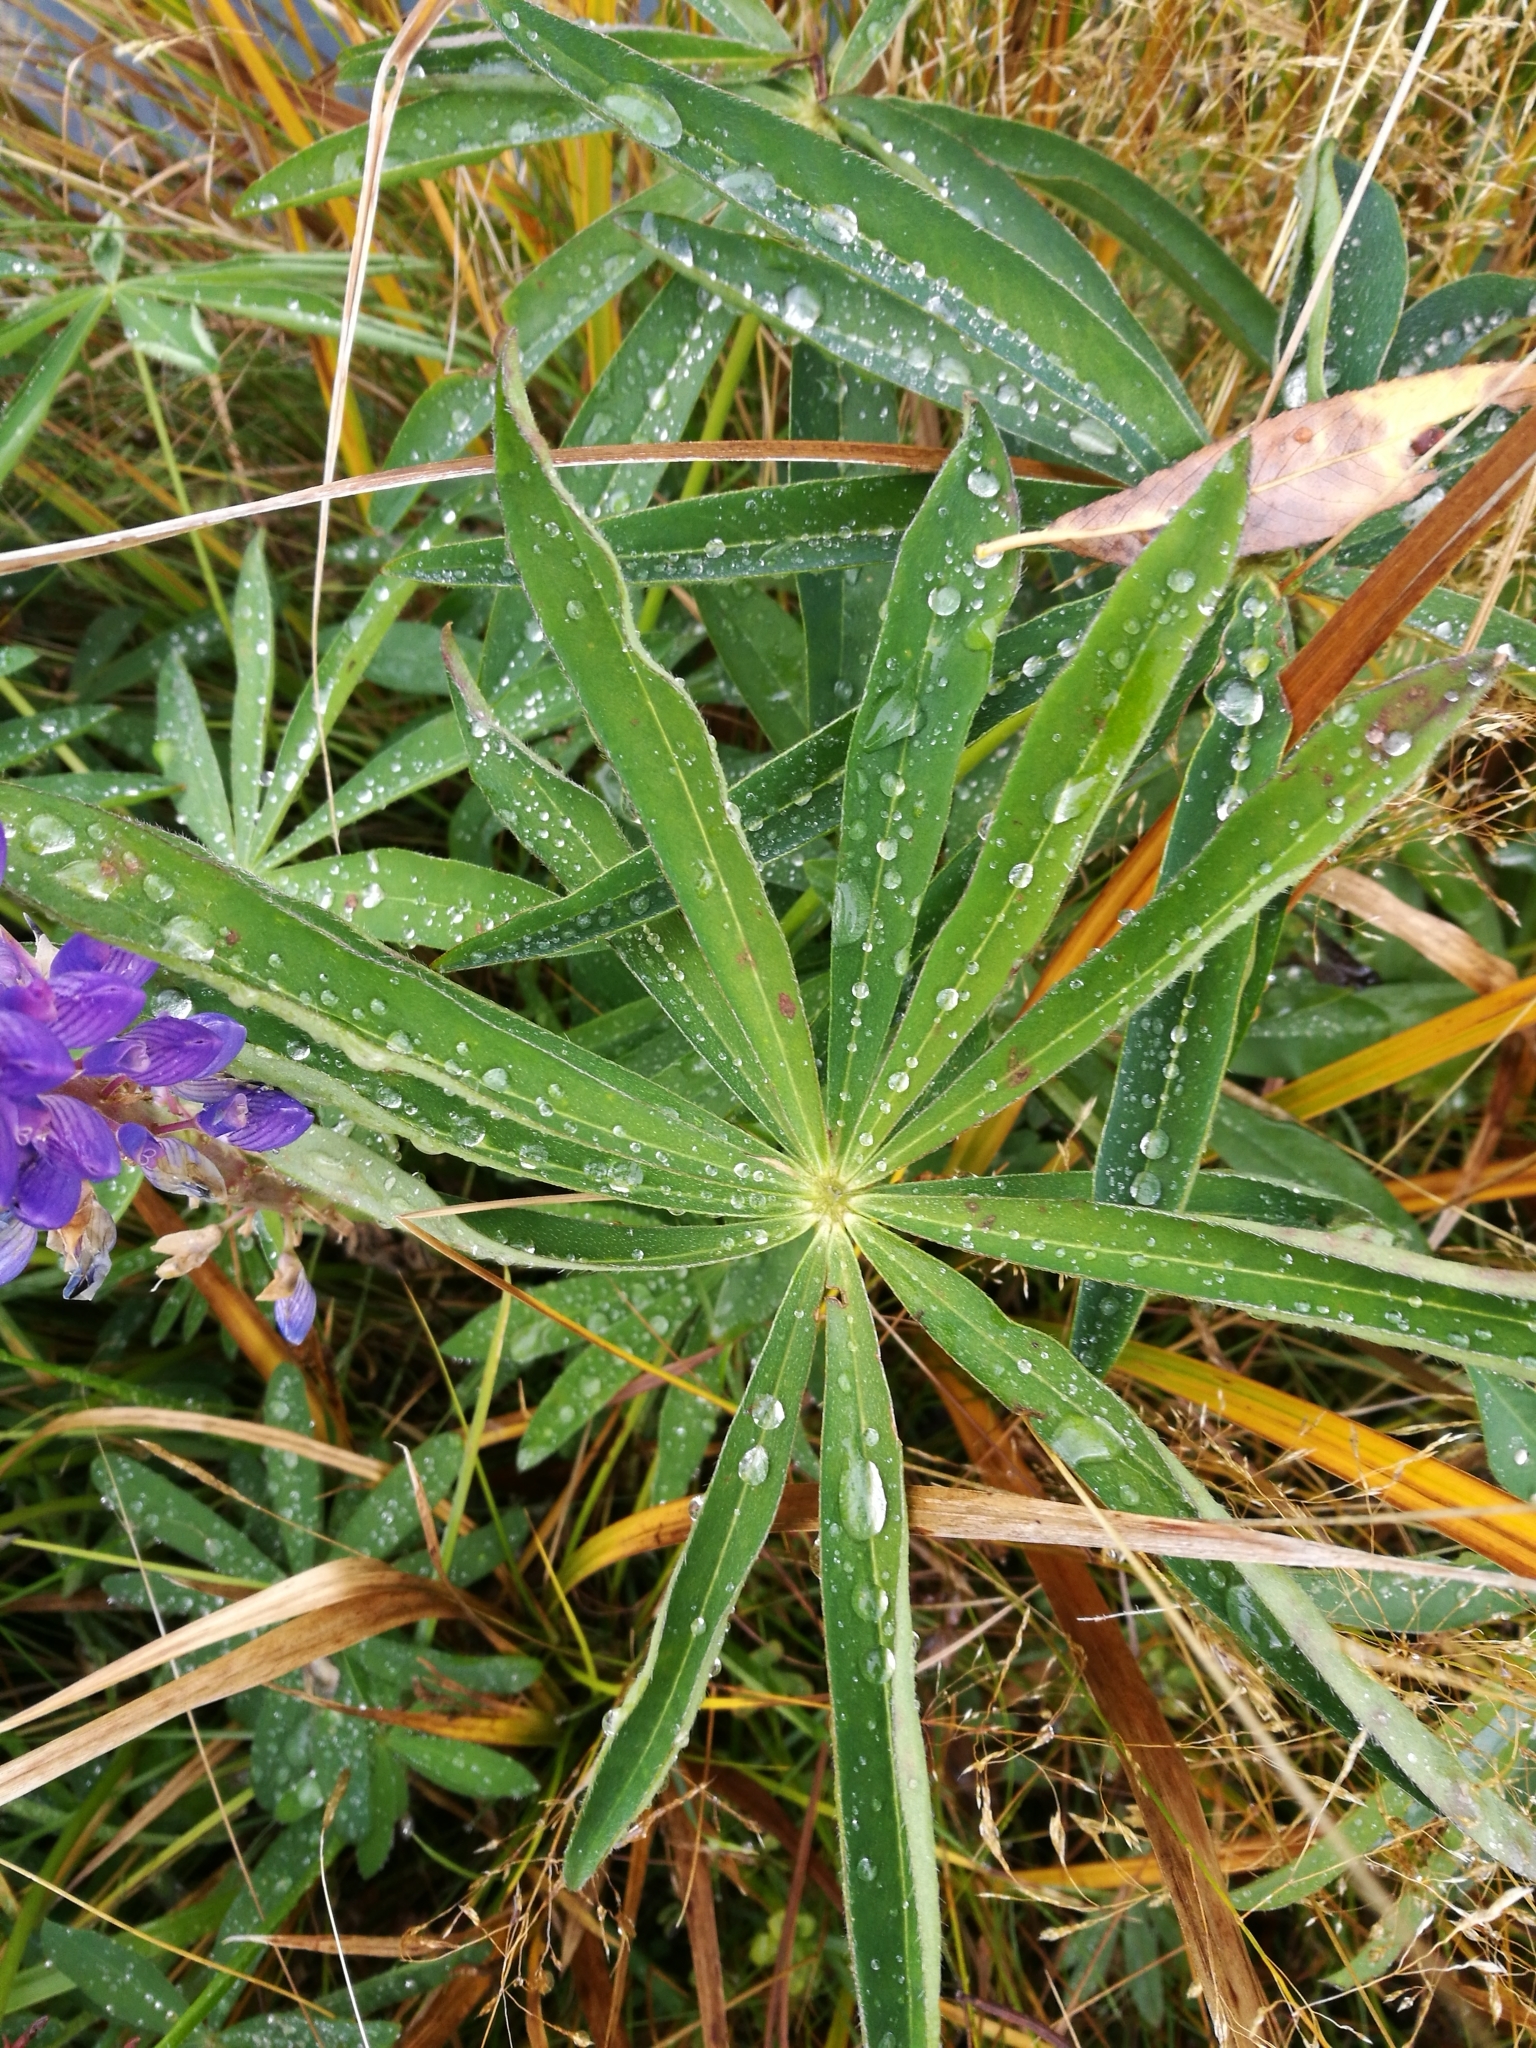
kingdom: Plantae
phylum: Tracheophyta
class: Magnoliopsida
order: Fabales
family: Fabaceae
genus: Lupinus
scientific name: Lupinus polyphyllus
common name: Garden lupin
